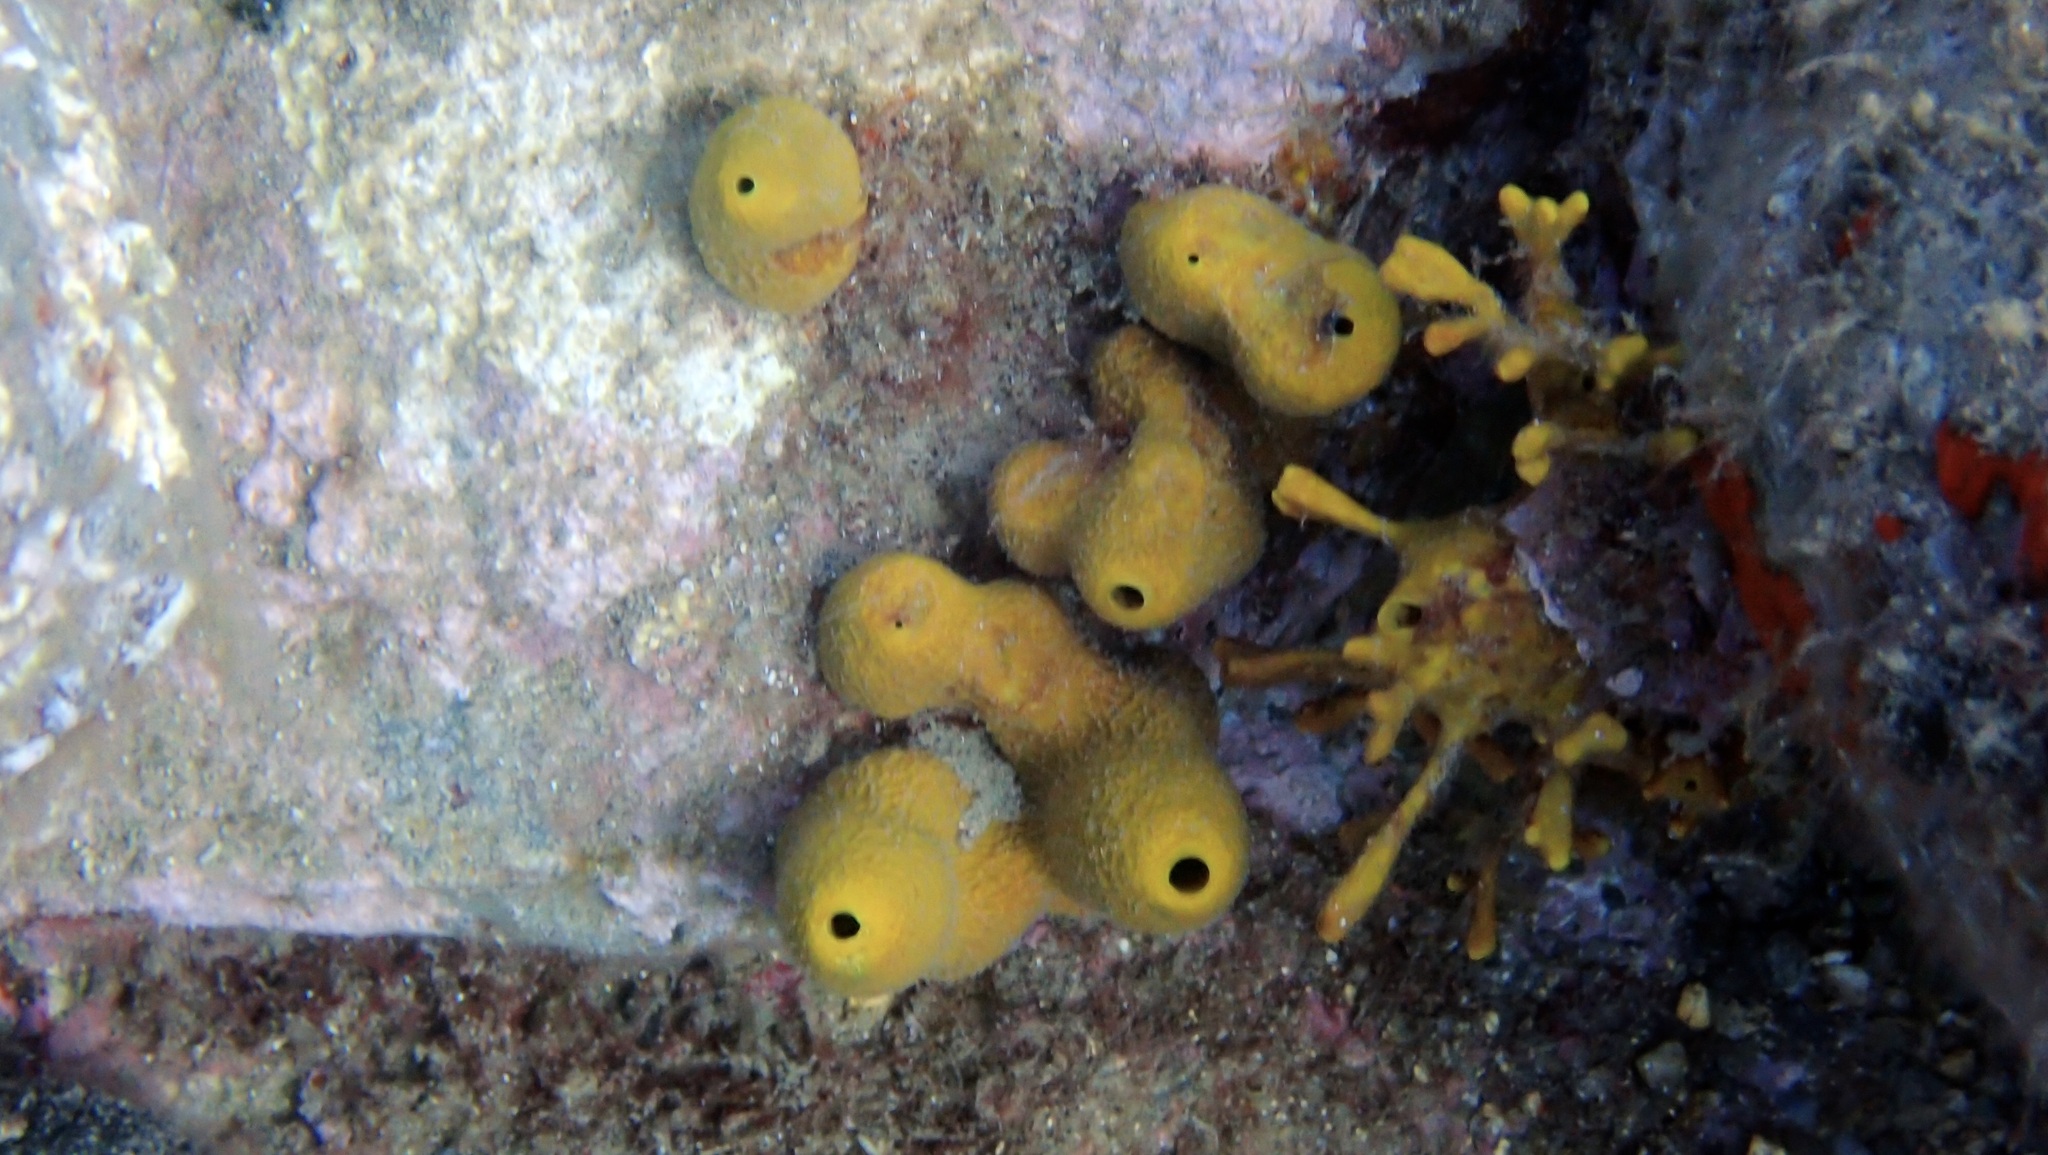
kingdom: Animalia
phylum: Porifera
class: Demospongiae
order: Verongiida
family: Aplysinidae
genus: Aplysina
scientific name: Aplysina aerophoba
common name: Aureate sponge
